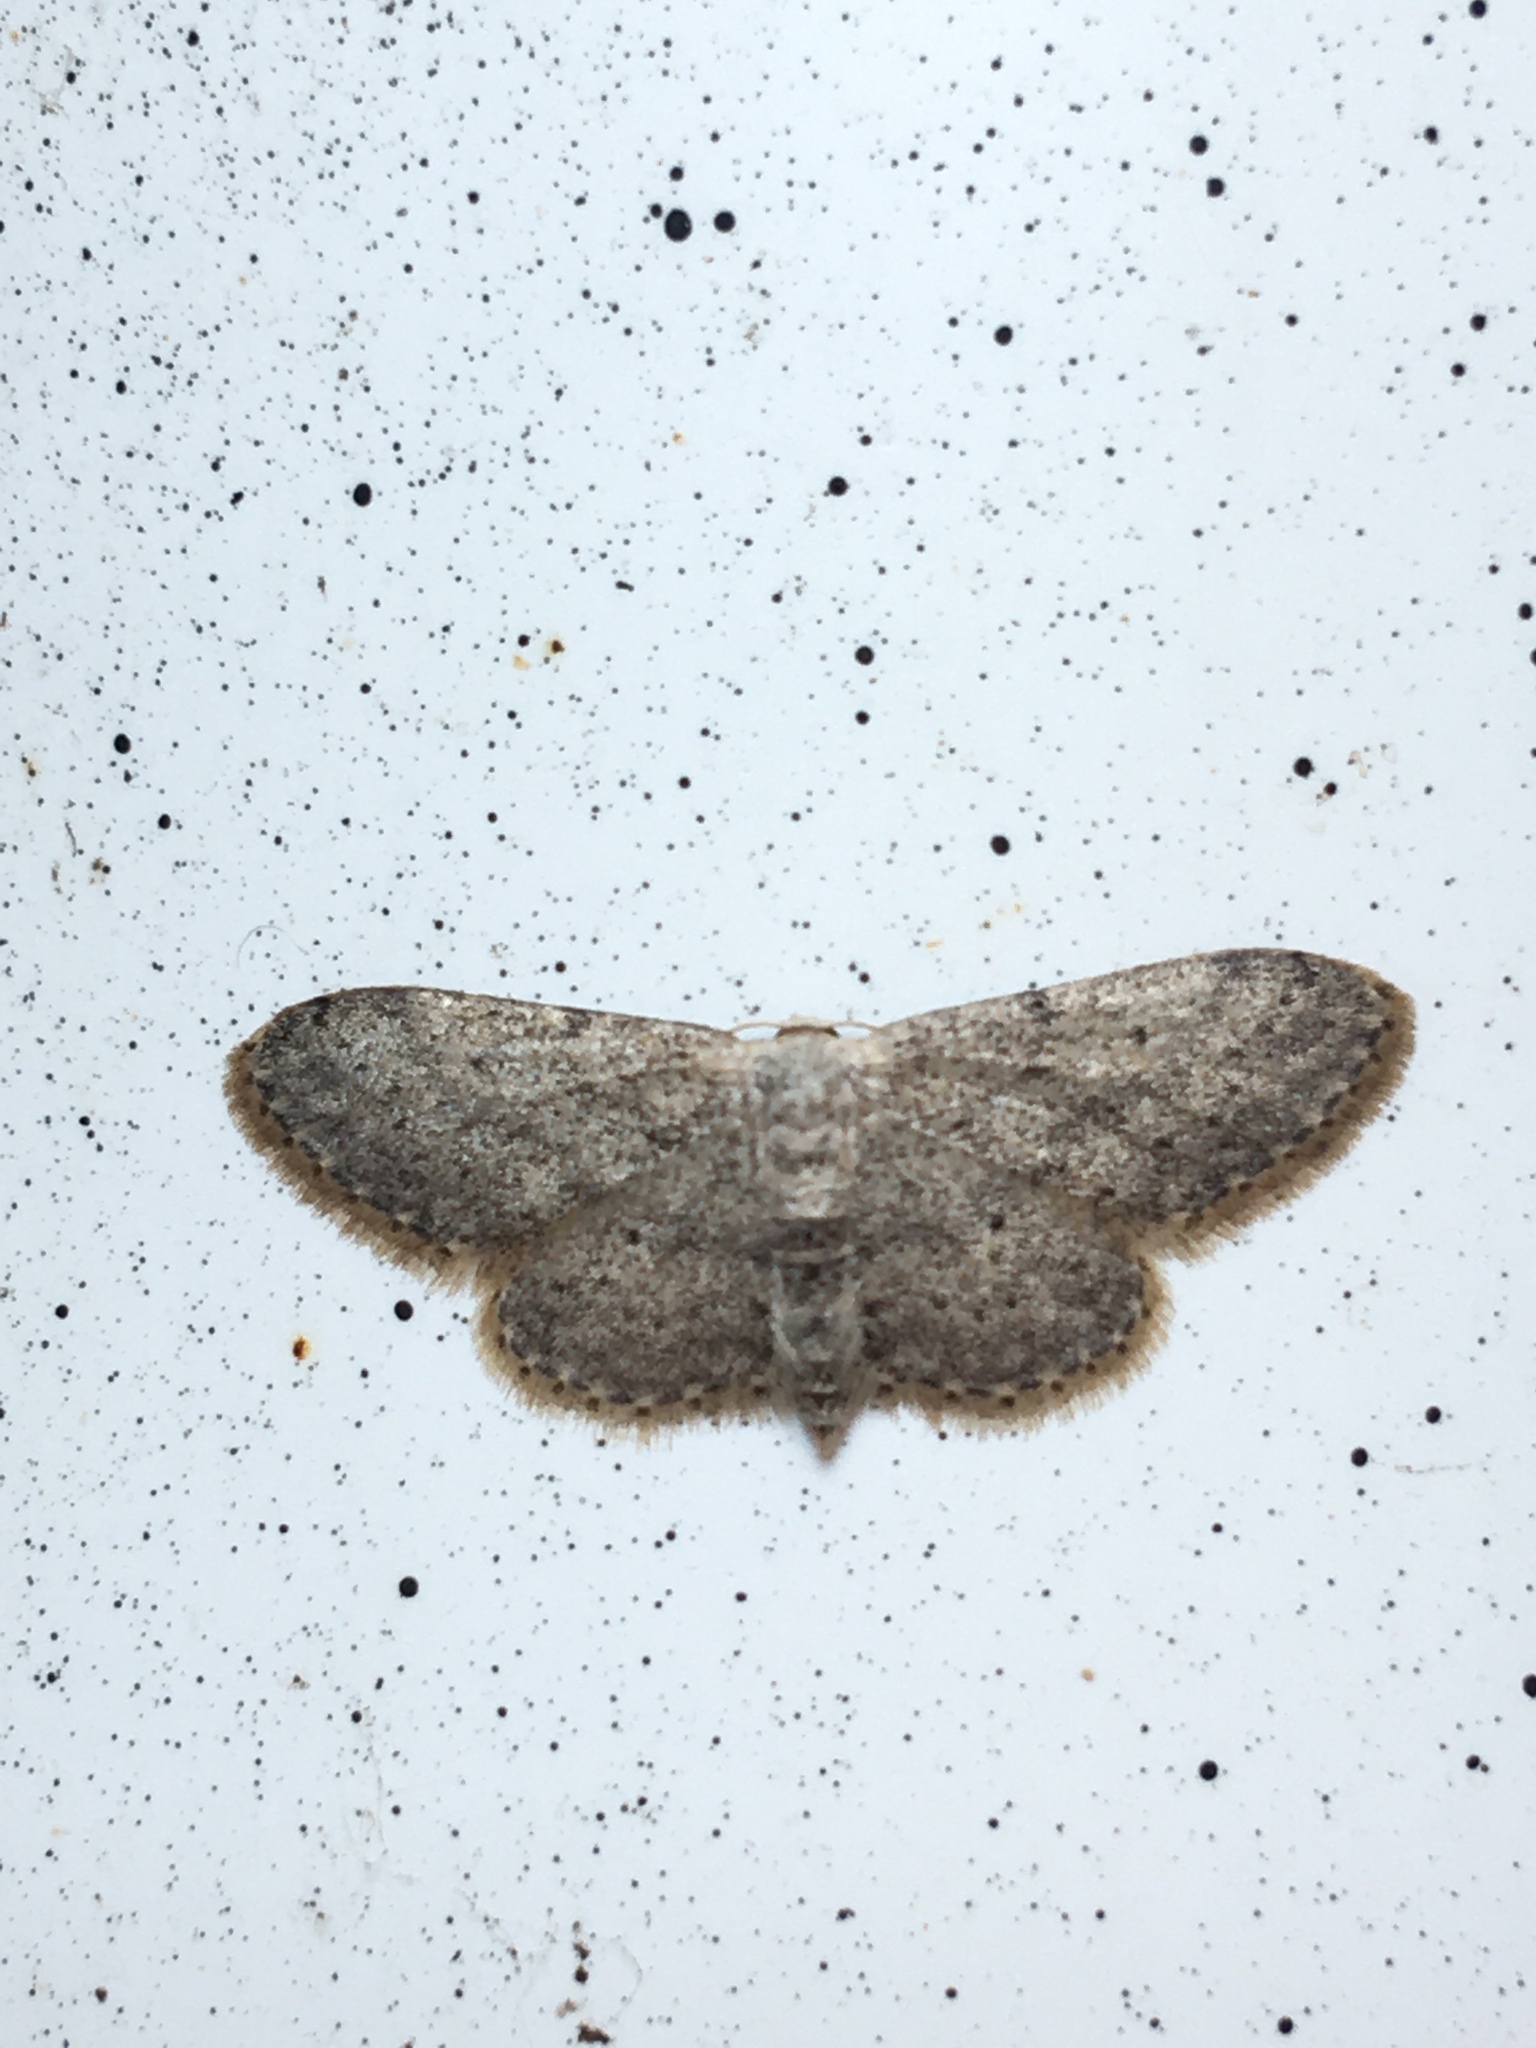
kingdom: Animalia
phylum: Arthropoda
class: Insecta
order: Lepidoptera
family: Geometridae
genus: Idaea
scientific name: Idaea seriata
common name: Small dusty wave
